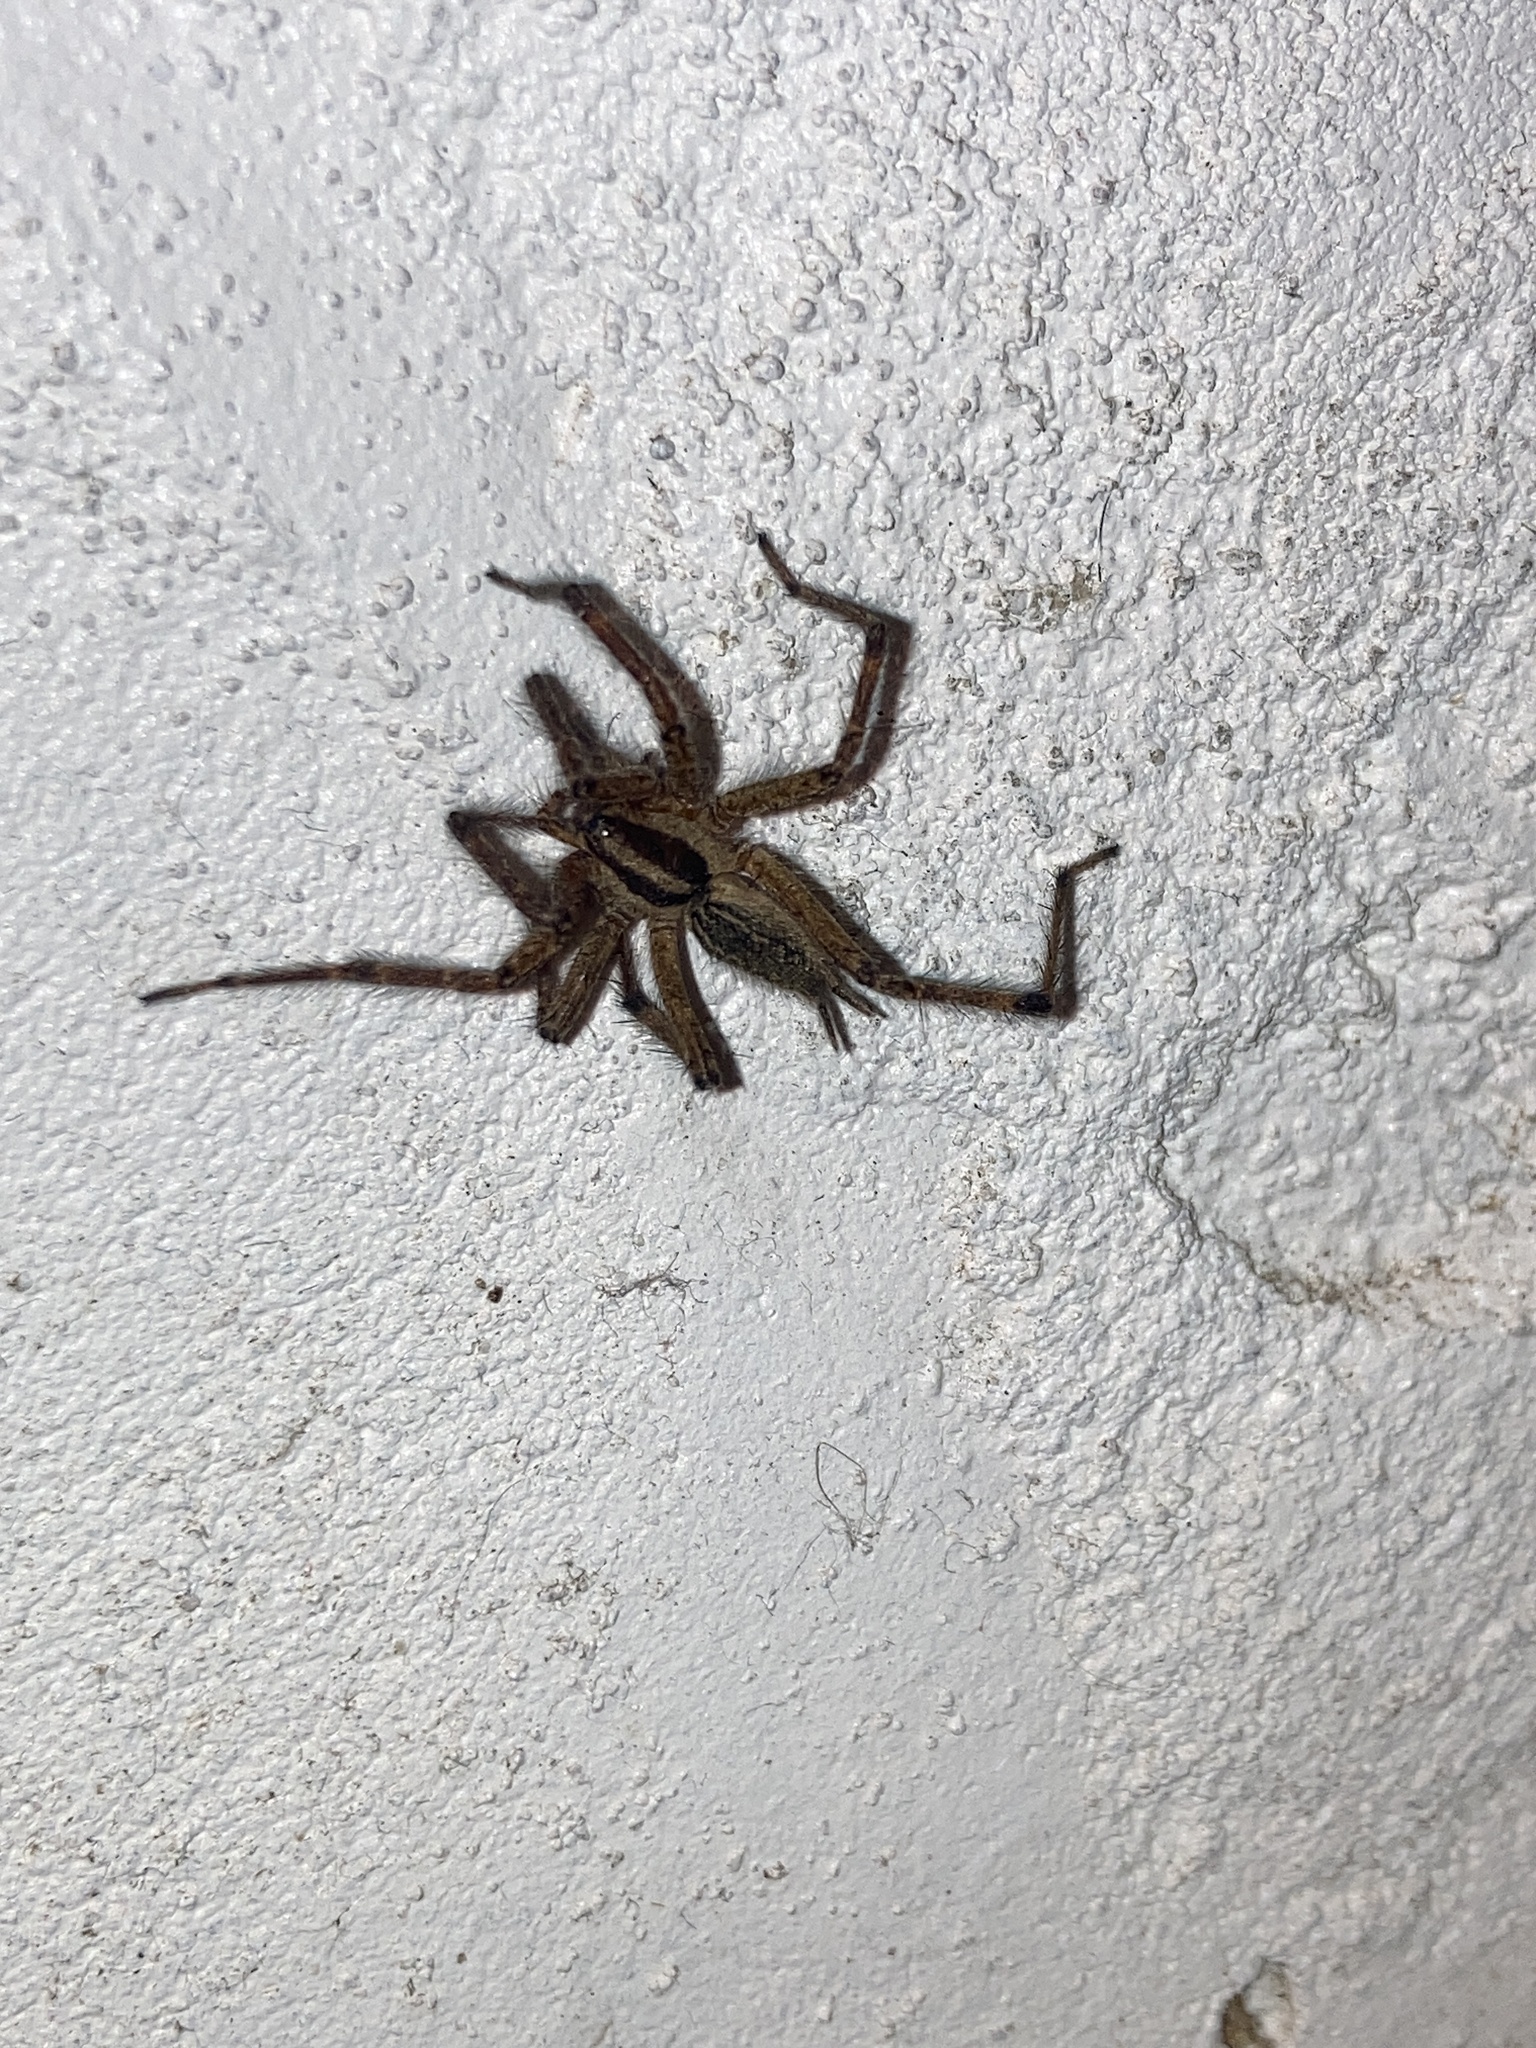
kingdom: Animalia
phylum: Arthropoda
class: Arachnida
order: Araneae
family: Agelenidae
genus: Agelenopsis
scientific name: Agelenopsis
